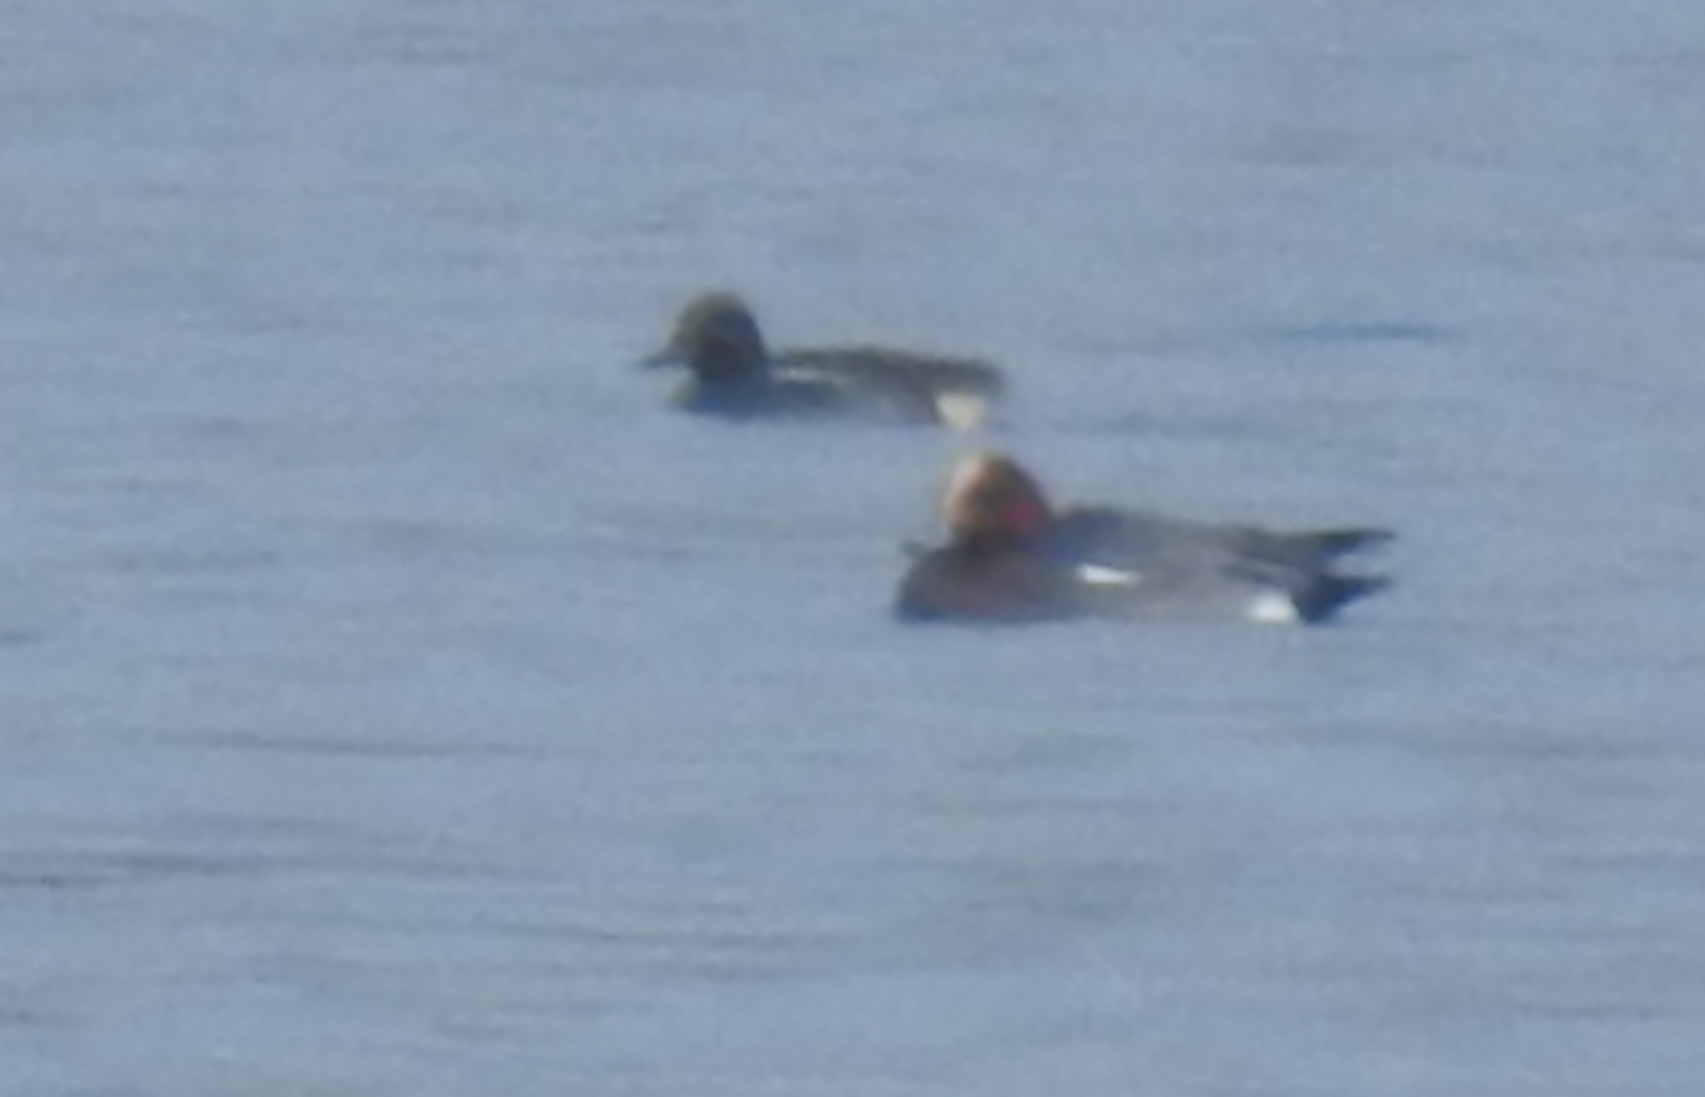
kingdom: Animalia
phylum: Chordata
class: Aves
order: Anseriformes
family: Anatidae
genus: Mareca
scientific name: Mareca penelope
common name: Eurasian wigeon
